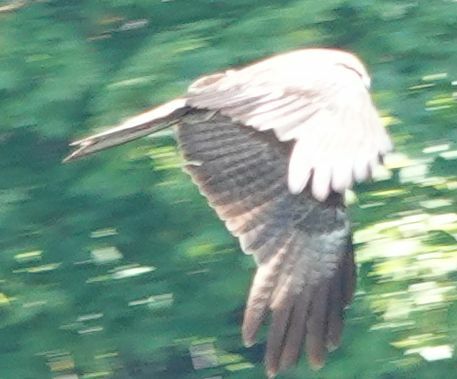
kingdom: Animalia
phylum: Chordata
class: Aves
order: Accipitriformes
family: Accipitridae
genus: Milvus
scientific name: Milvus migrans
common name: Black kite
